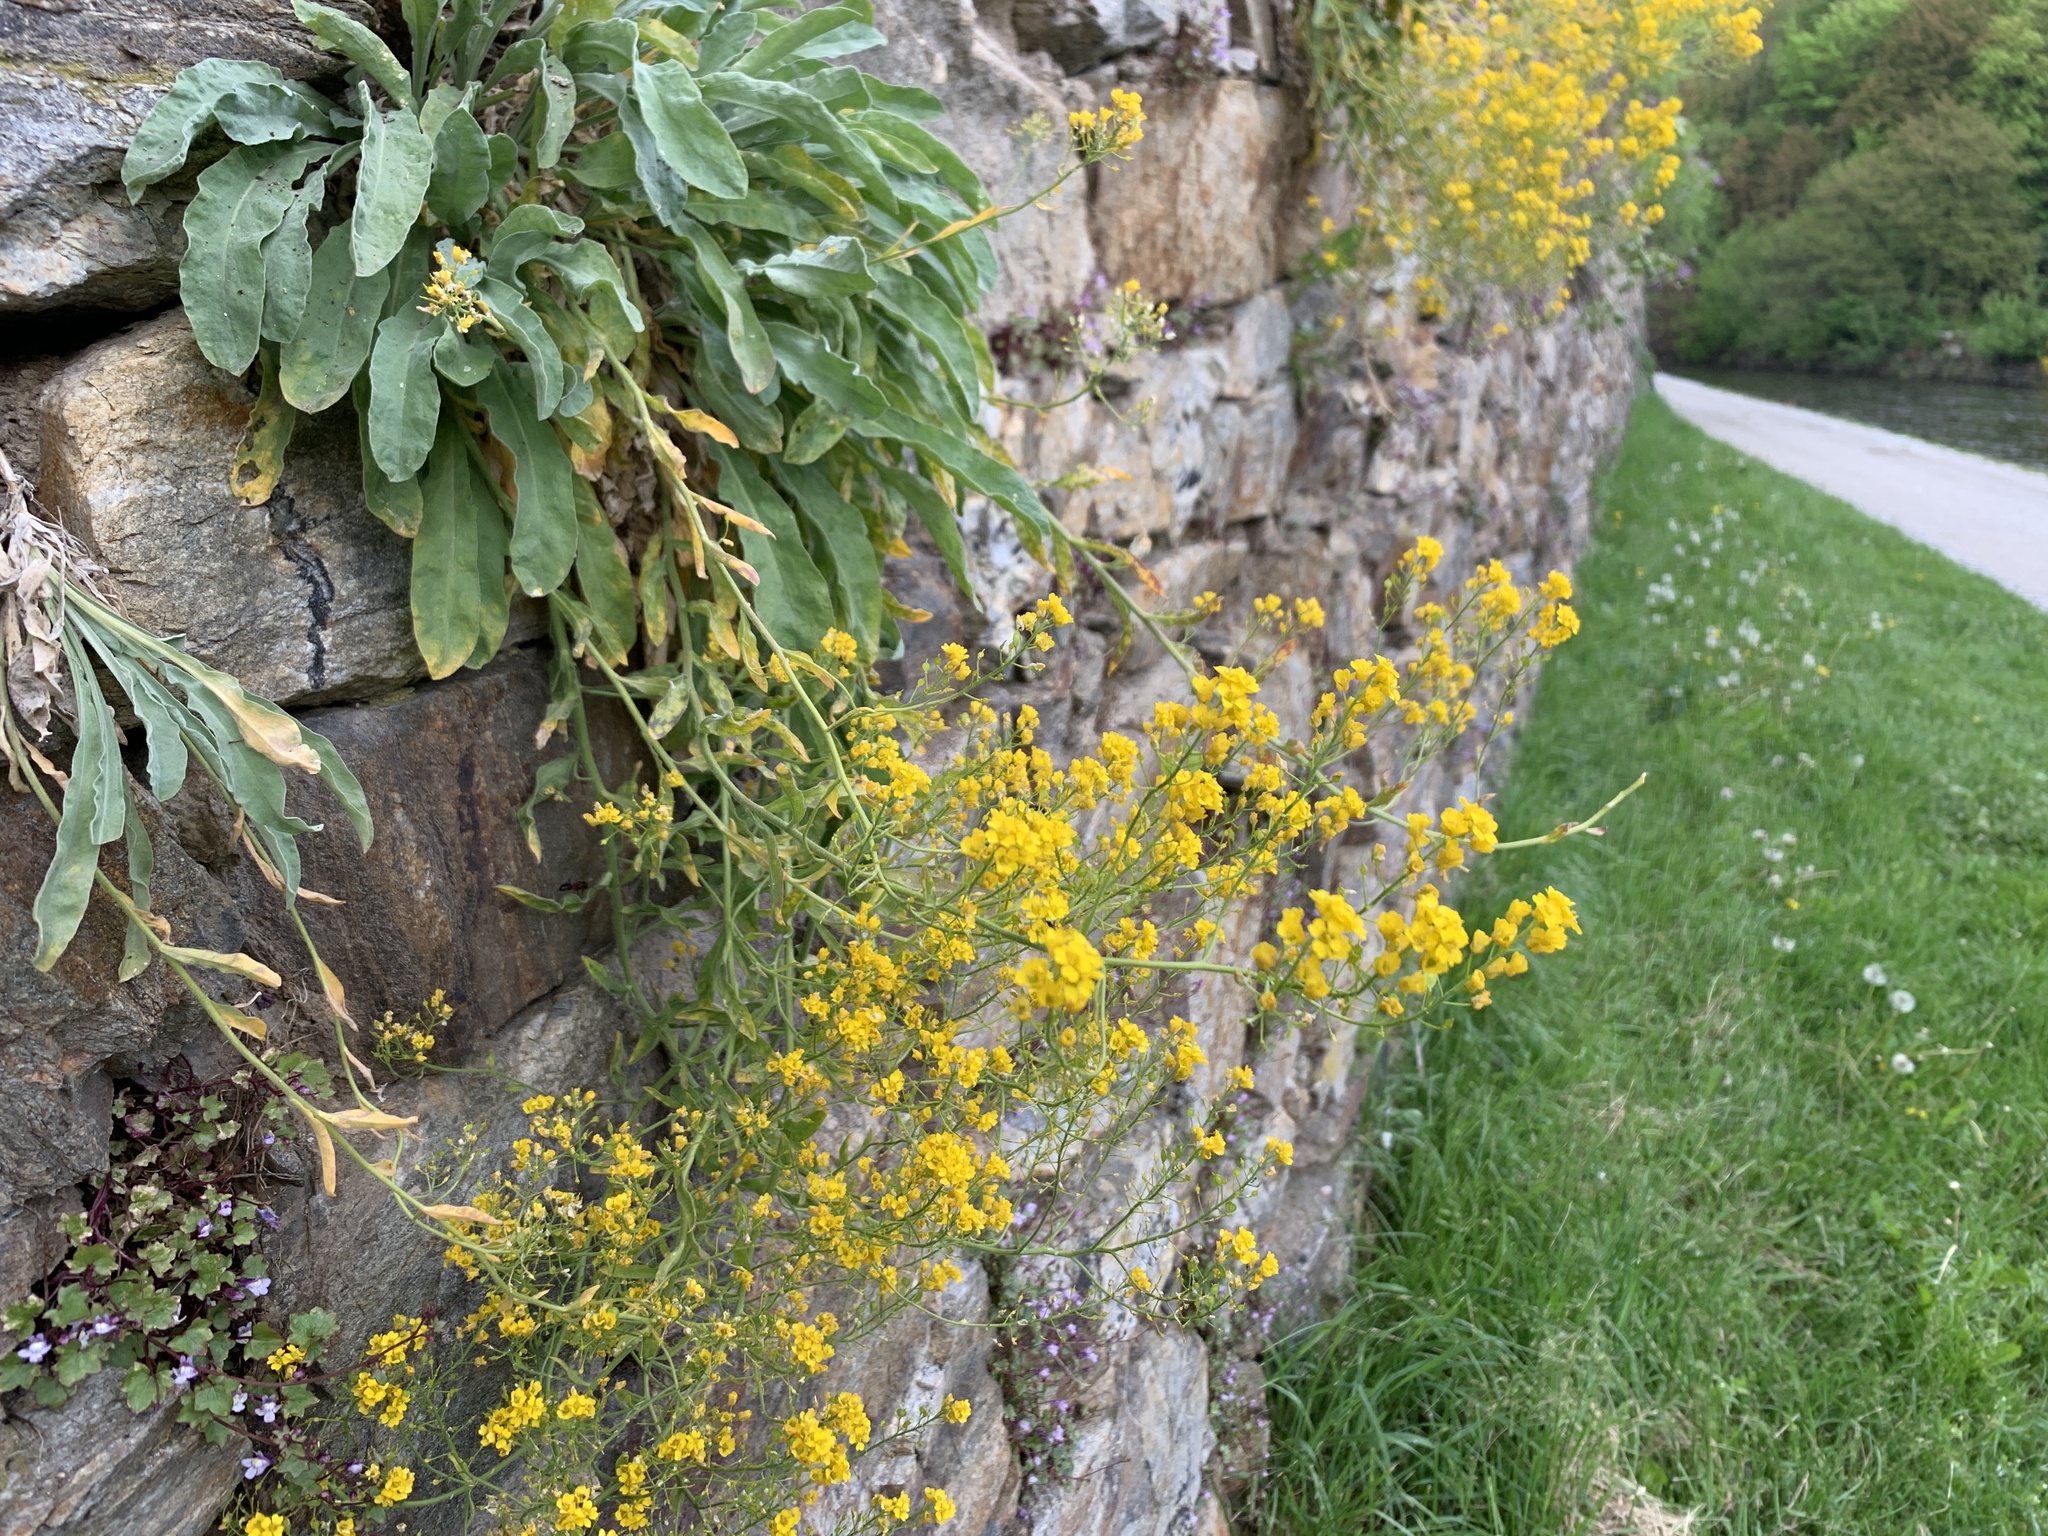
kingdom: Plantae
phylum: Tracheophyta
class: Magnoliopsida
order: Brassicales
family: Brassicaceae
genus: Aurinia
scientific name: Aurinia saxatilis
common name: Golden-tuft alyssum
